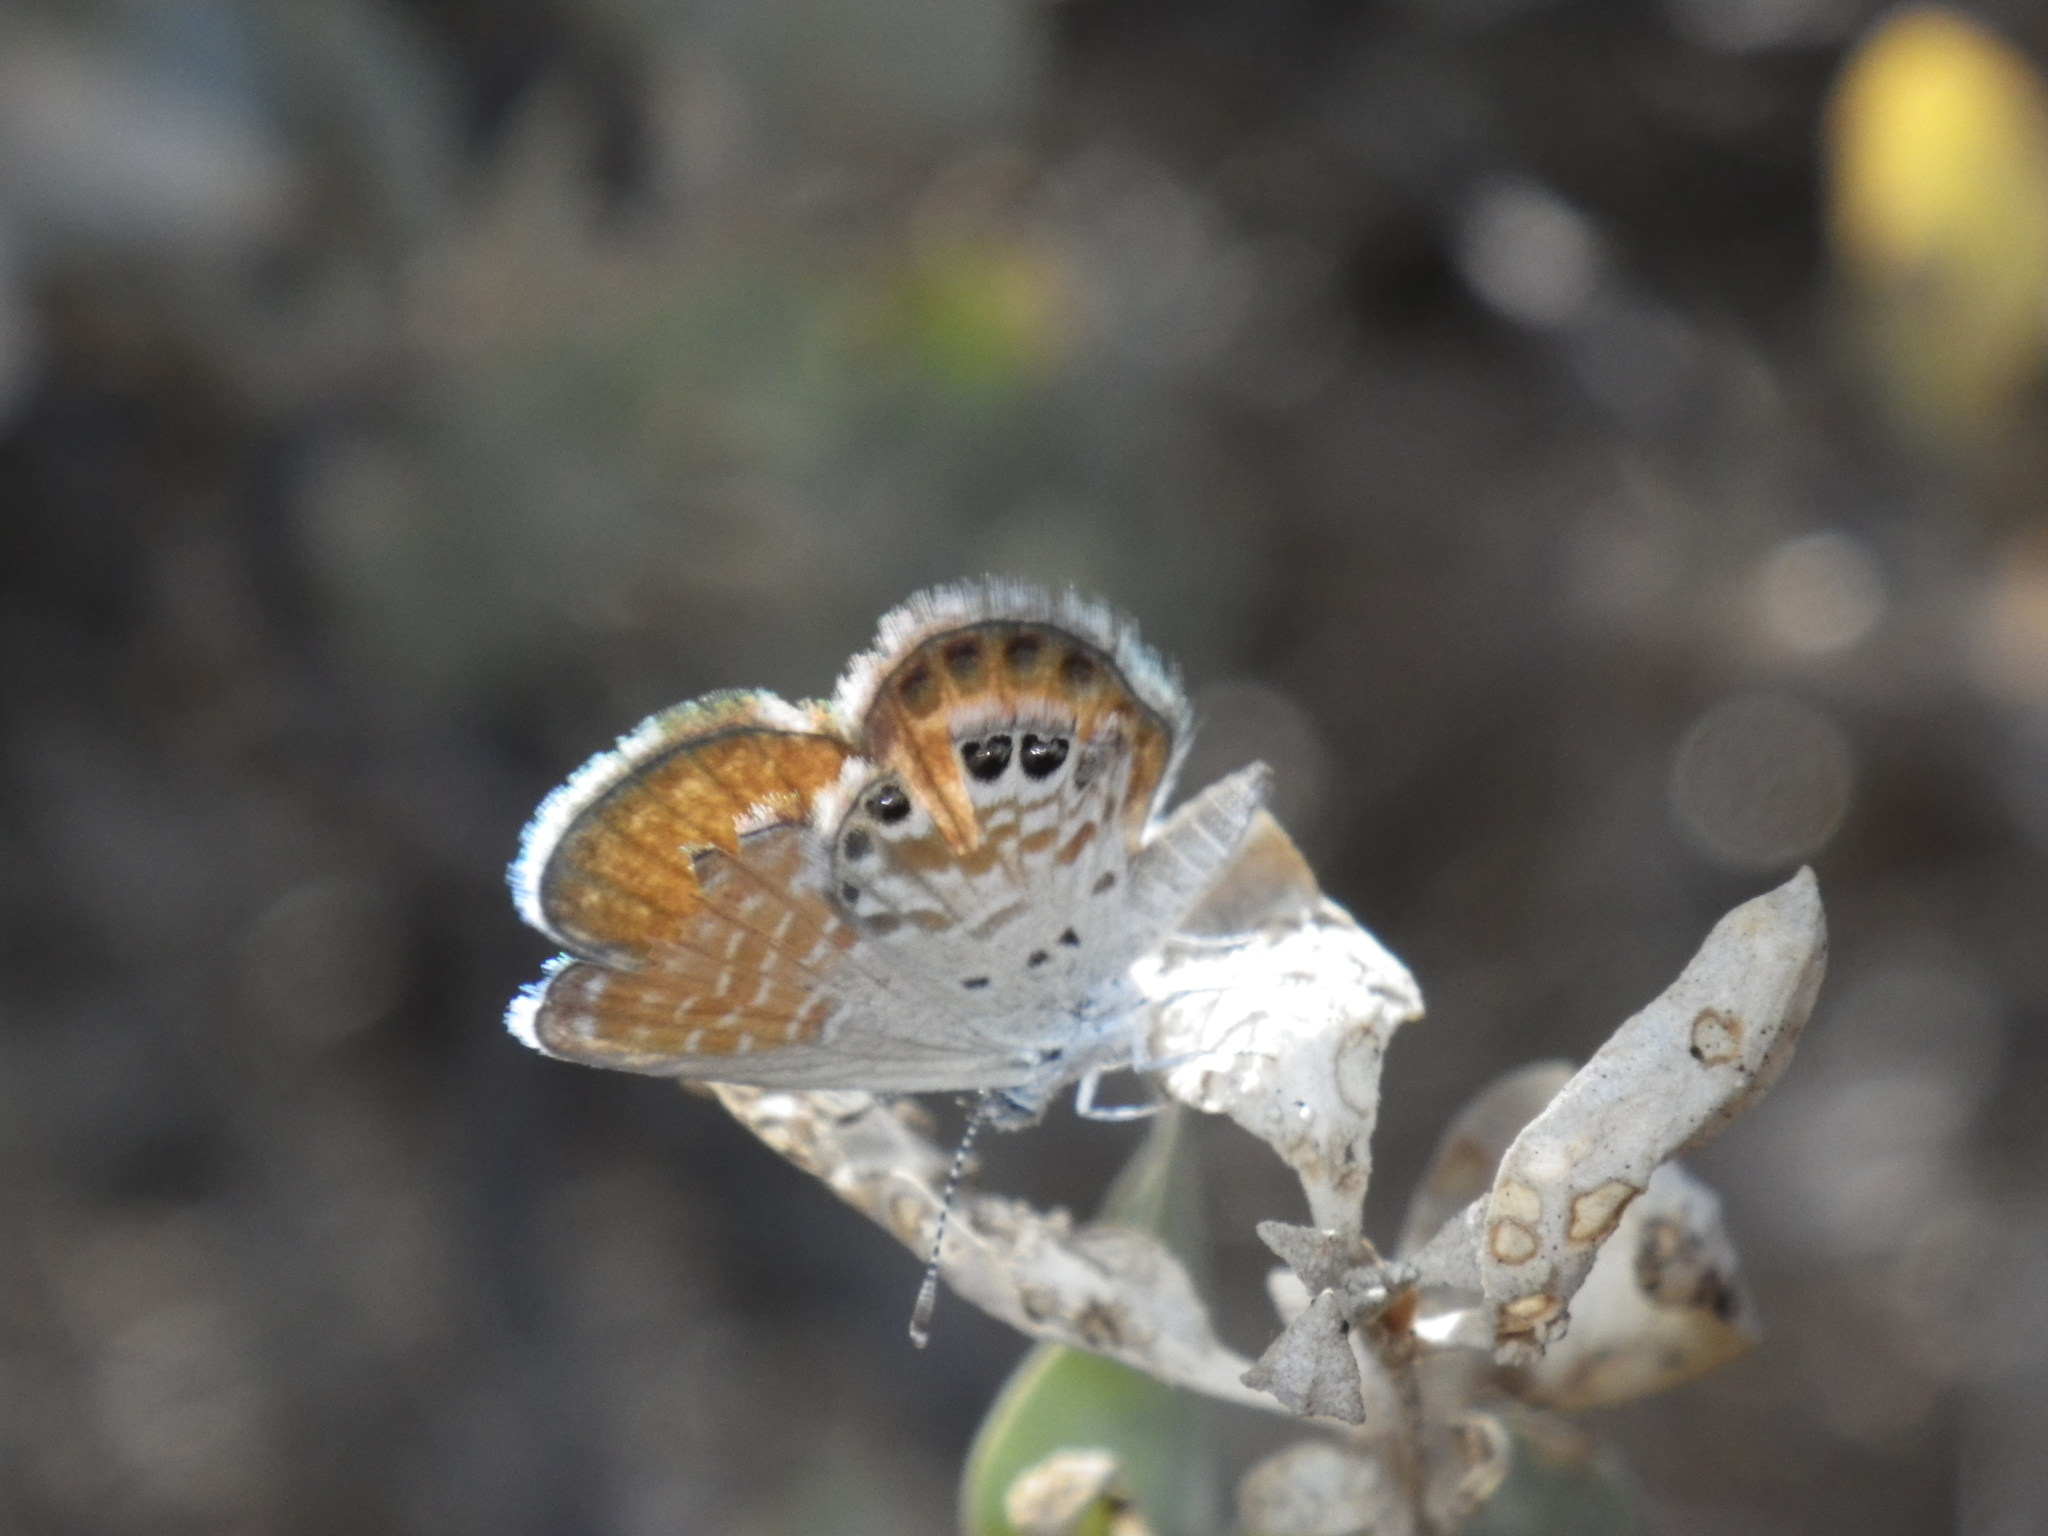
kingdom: Animalia
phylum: Arthropoda
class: Insecta
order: Lepidoptera
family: Lycaenidae
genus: Brephidium
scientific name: Brephidium exilis
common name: Pygmy blue
